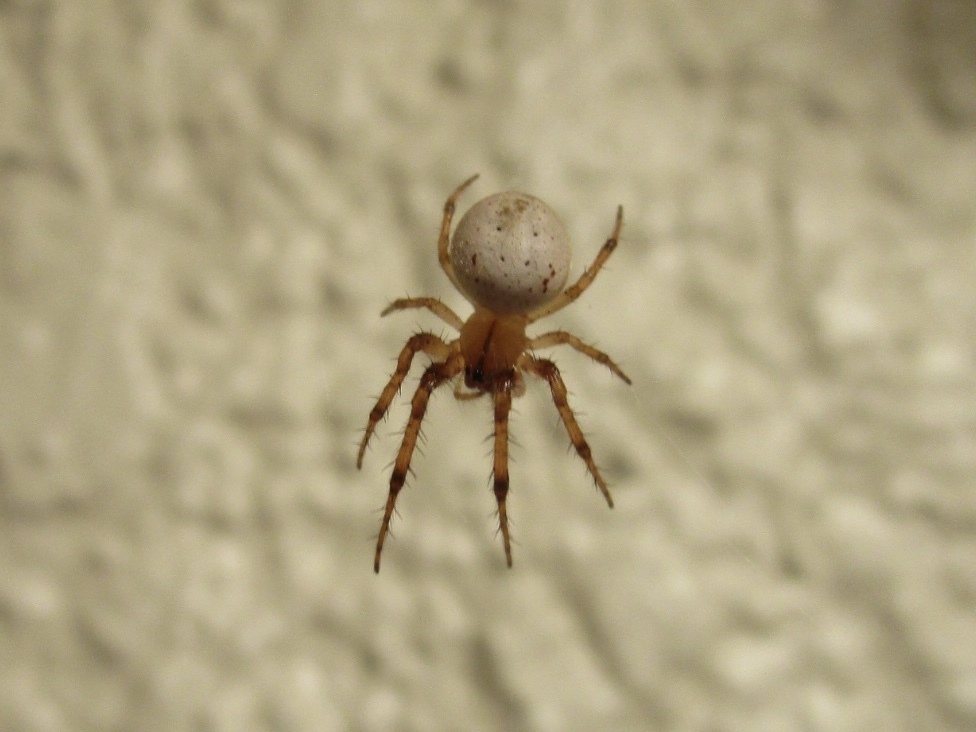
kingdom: Animalia
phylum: Arthropoda
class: Arachnida
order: Araneae
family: Araneidae
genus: Metazygia
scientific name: Metazygia zilloides
